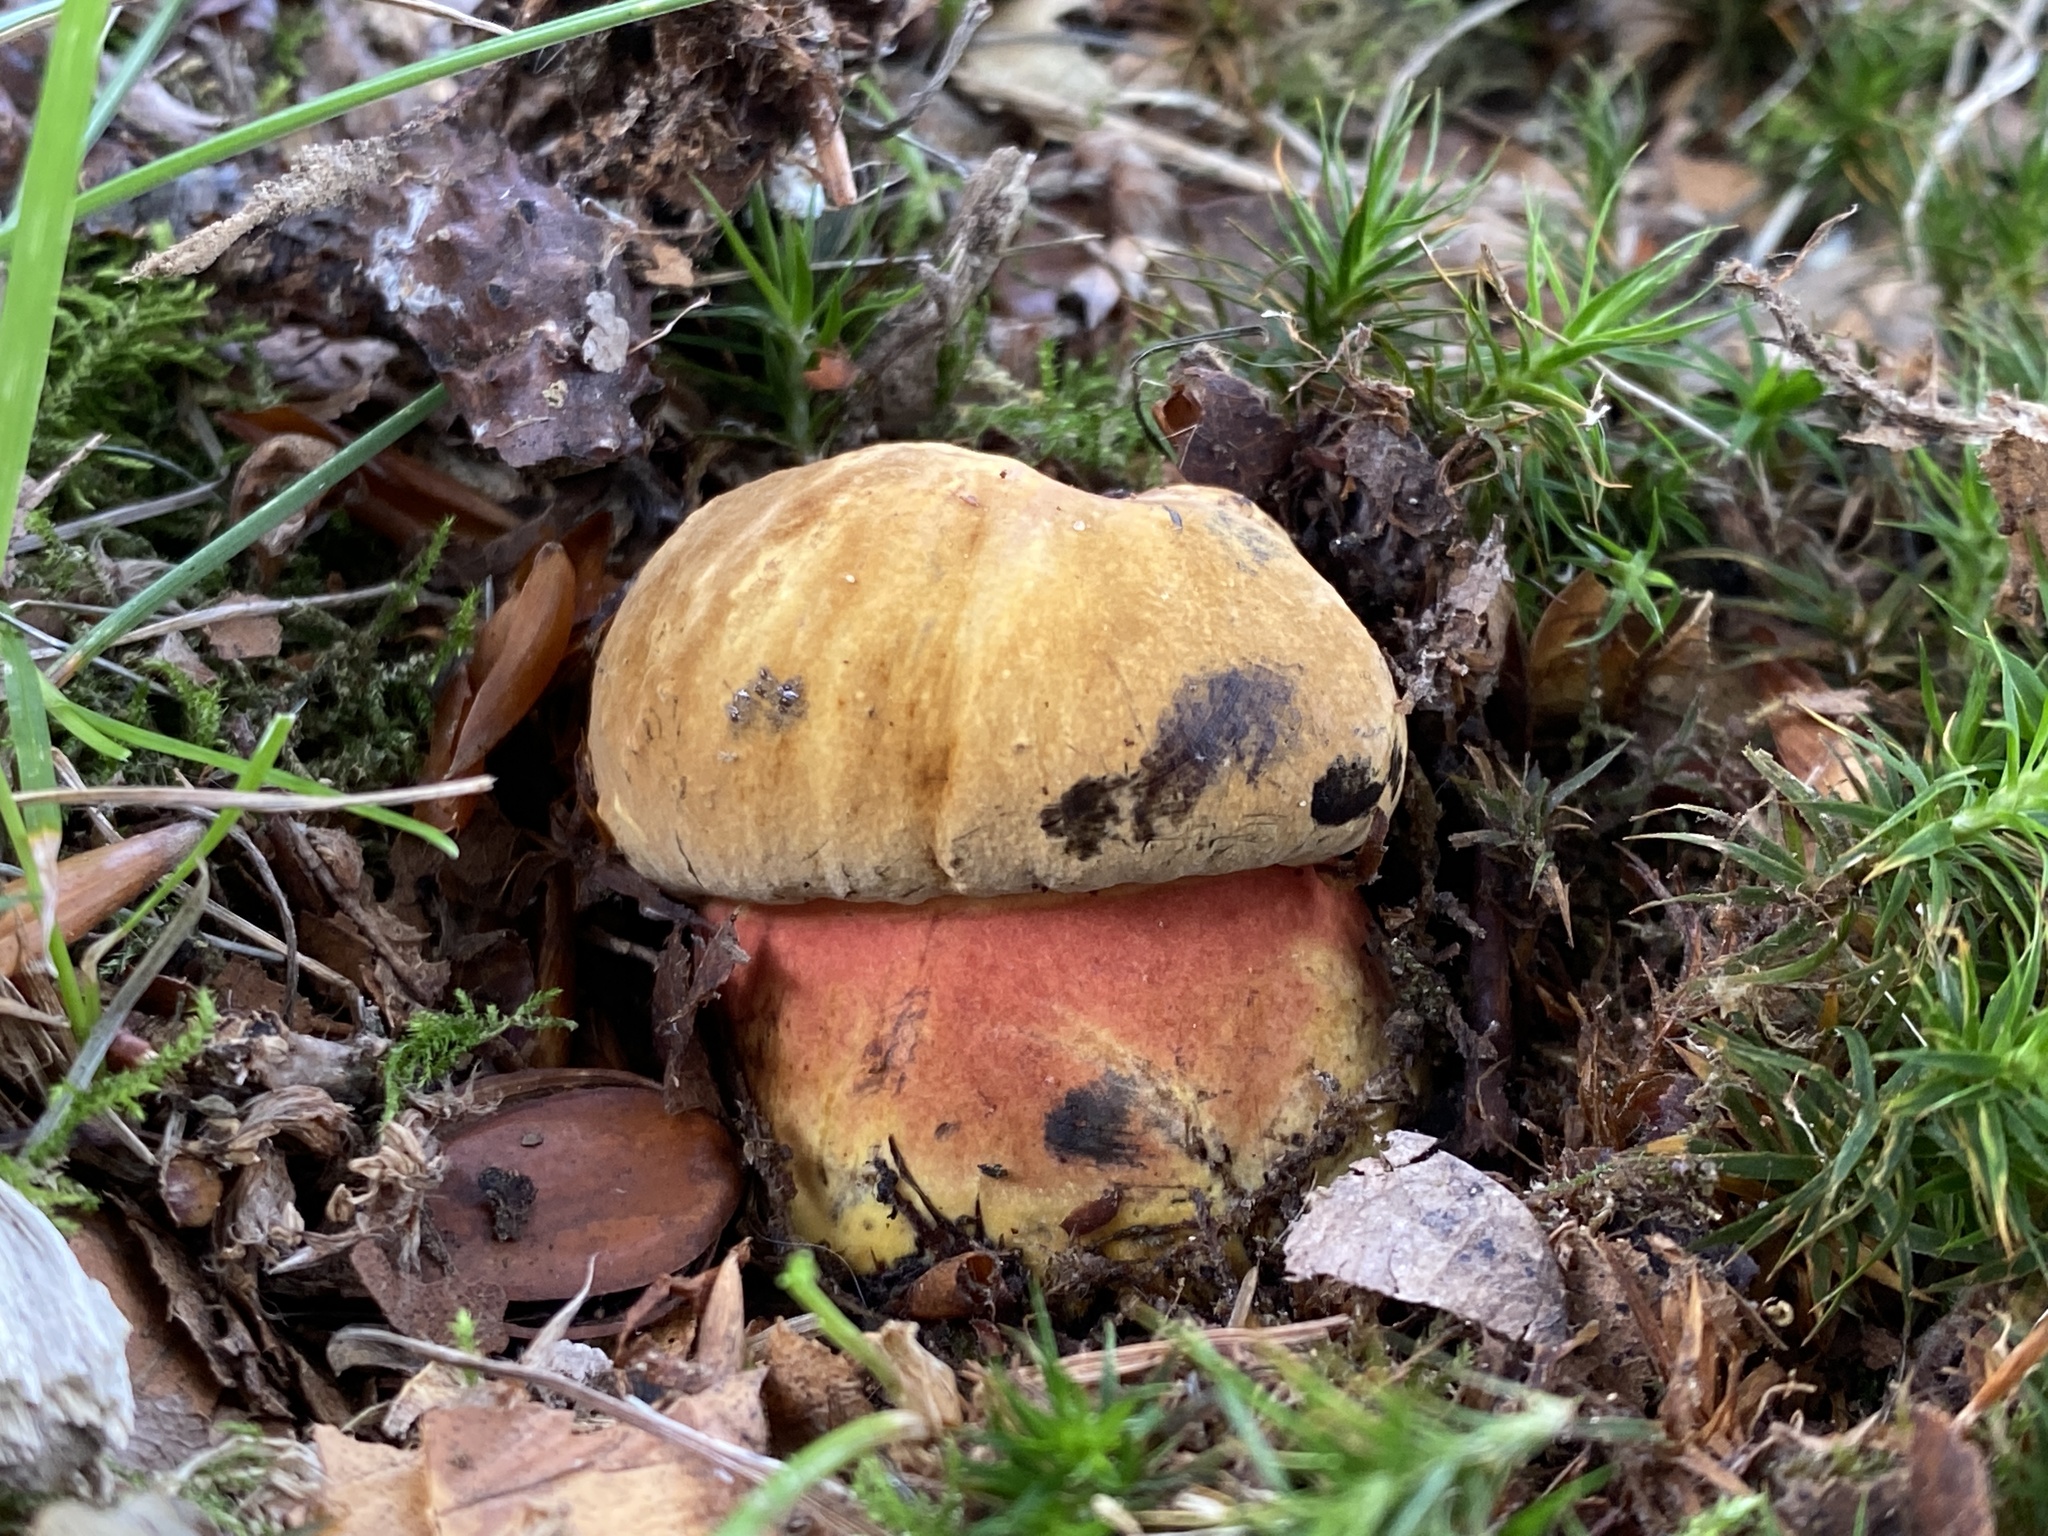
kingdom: Fungi
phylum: Basidiomycota
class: Agaricomycetes
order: Boletales
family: Boletaceae
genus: Neoboletus
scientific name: Neoboletus xanthopus
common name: False yellow bolete
